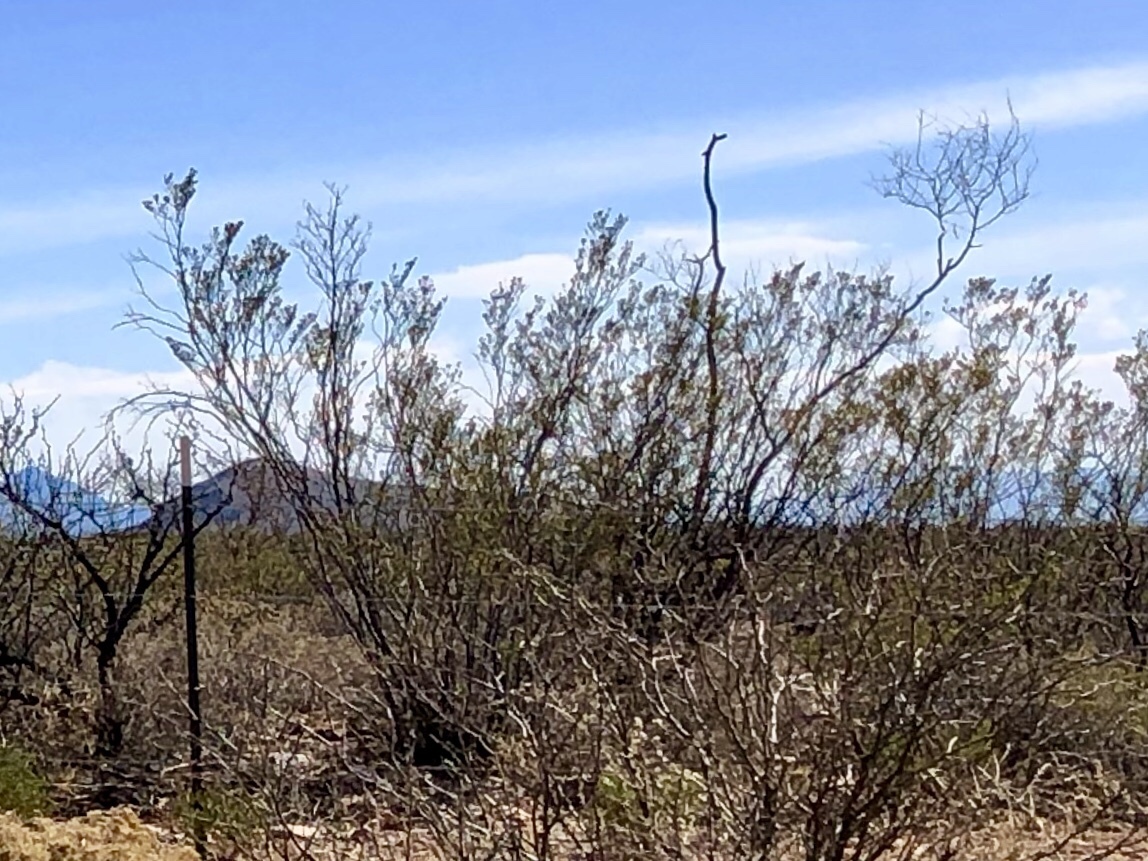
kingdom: Plantae
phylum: Tracheophyta
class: Magnoliopsida
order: Zygophyllales
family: Zygophyllaceae
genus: Larrea
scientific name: Larrea tridentata
